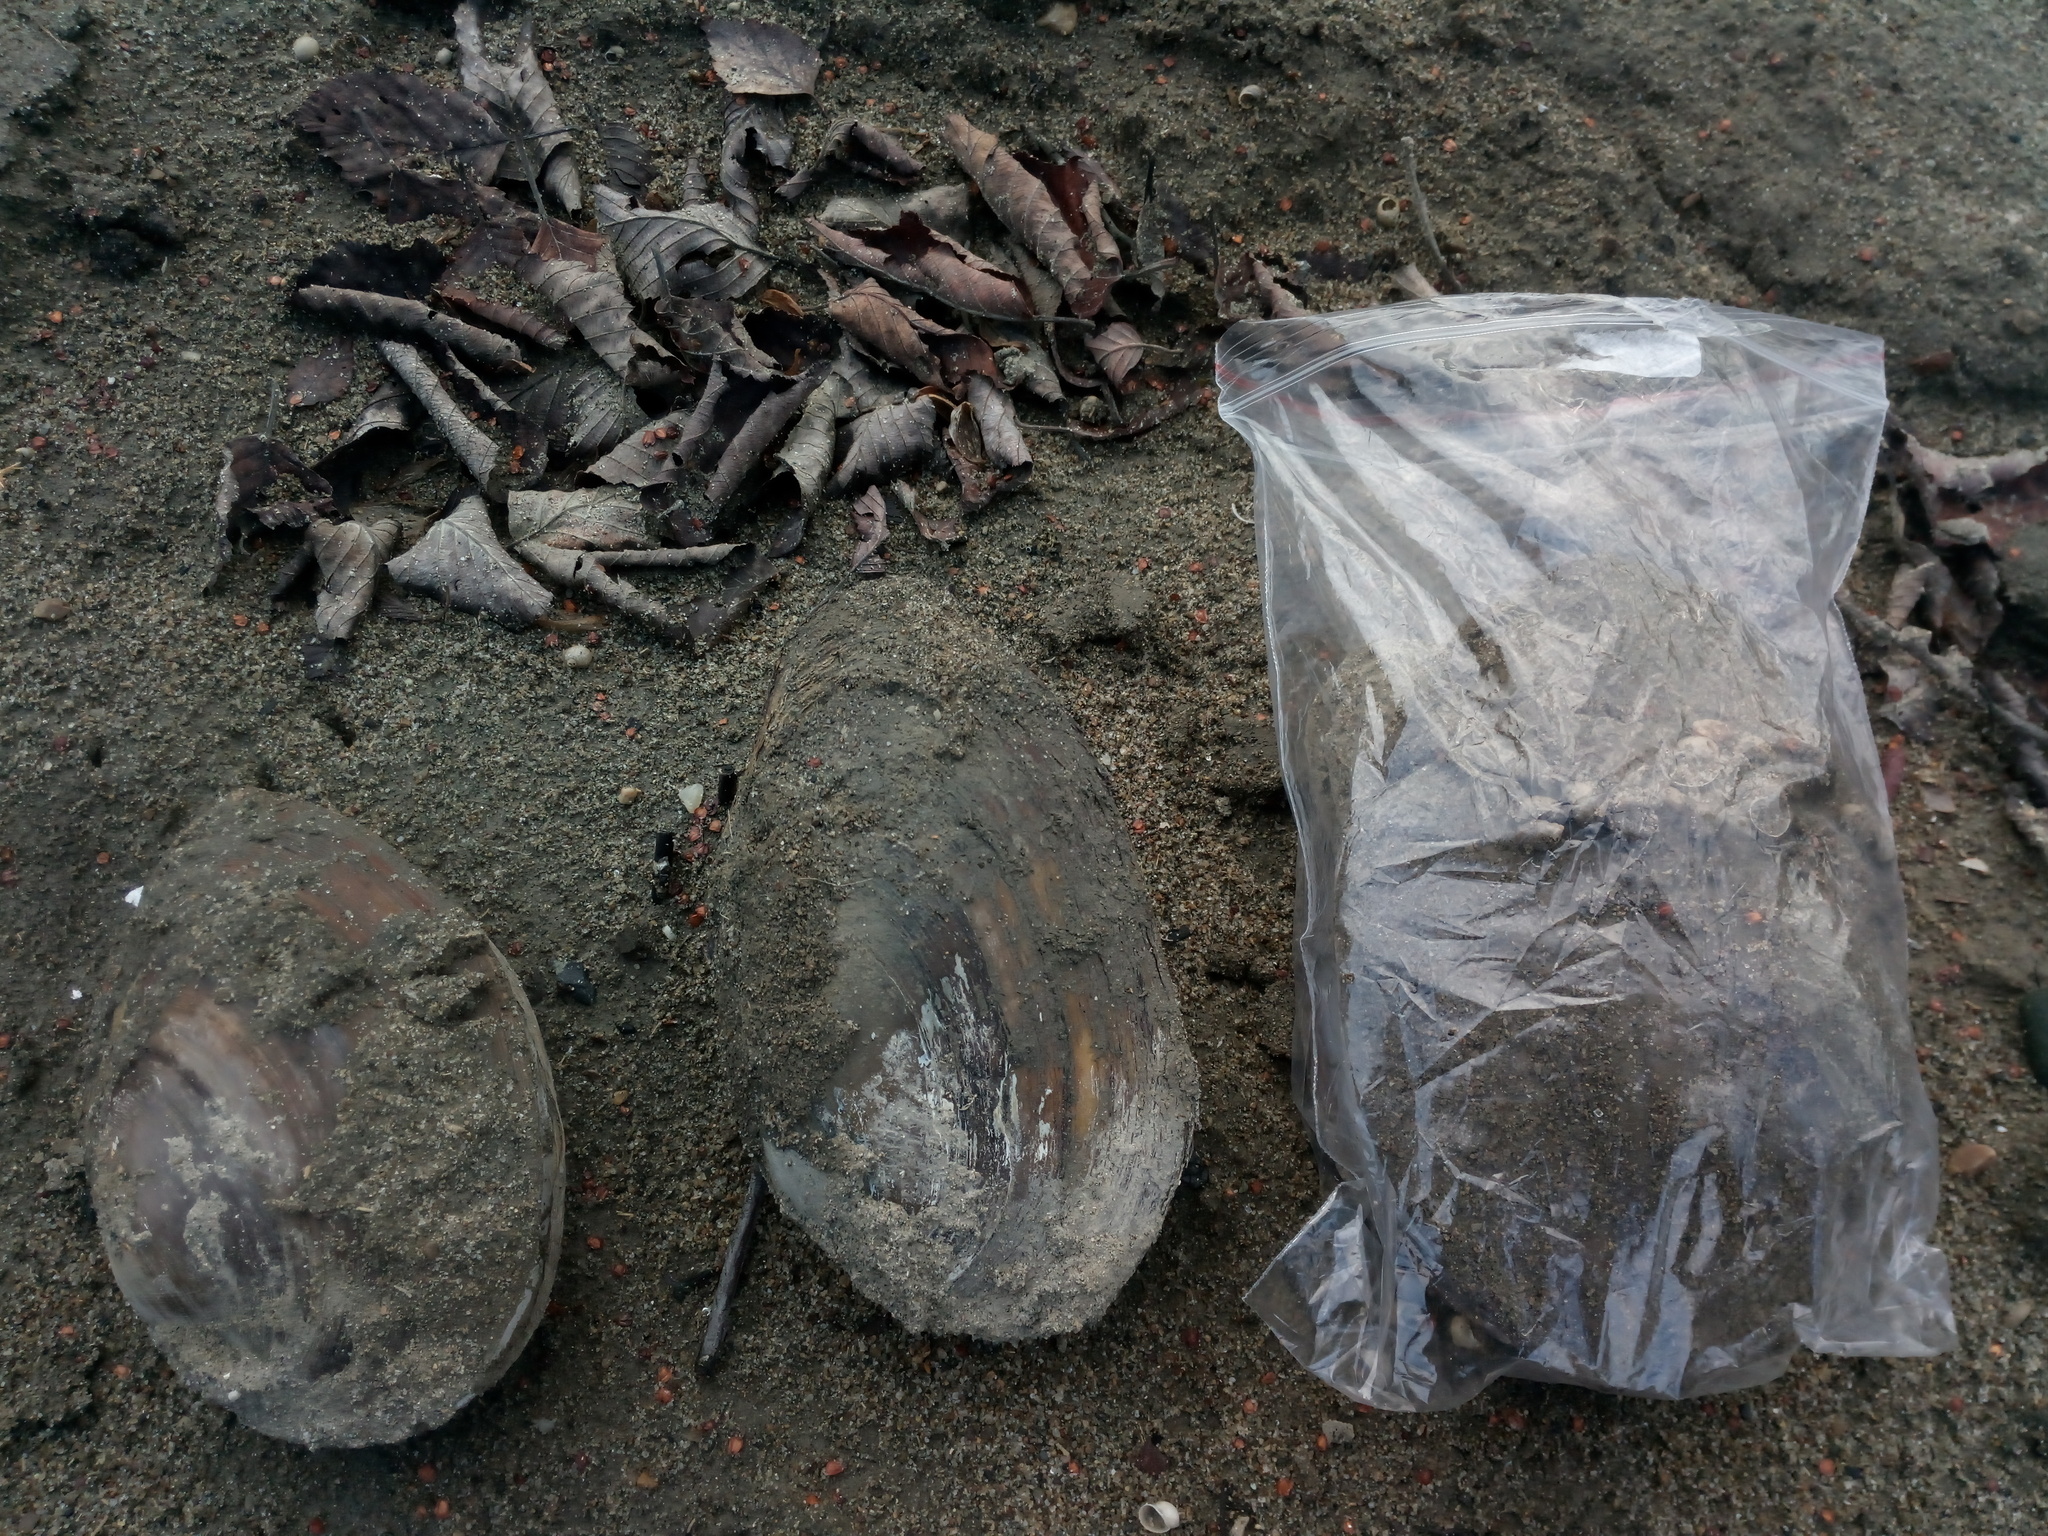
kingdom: Animalia
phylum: Mollusca
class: Bivalvia
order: Unionida
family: Unionidae
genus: Sinanodonta
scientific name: Sinanodonta woodiana
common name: Chinese pond mussel
